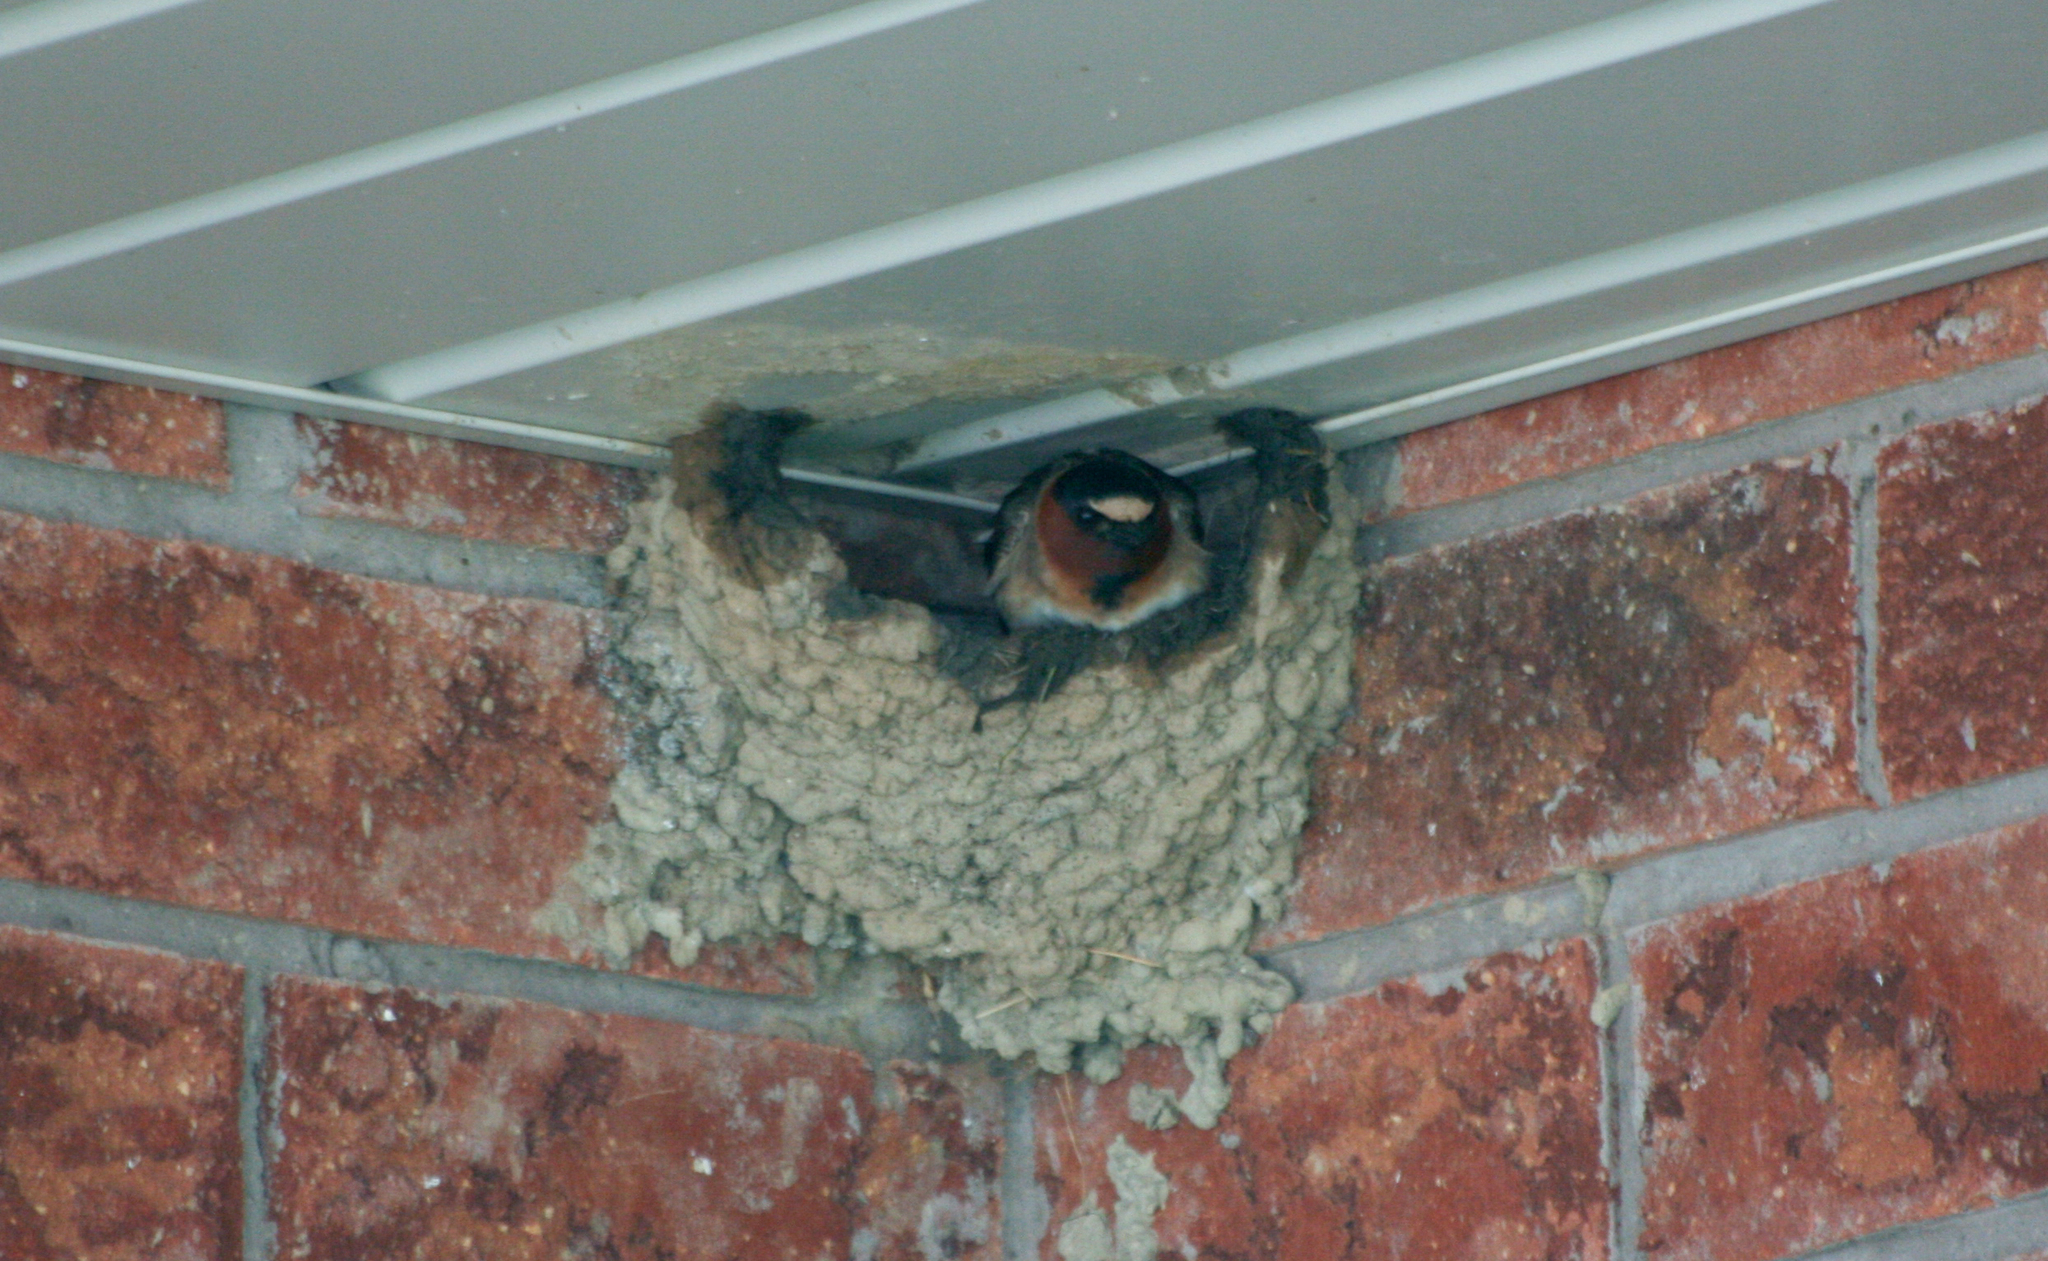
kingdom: Animalia
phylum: Chordata
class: Aves
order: Passeriformes
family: Hirundinidae
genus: Petrochelidon
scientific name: Petrochelidon pyrrhonota
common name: American cliff swallow
